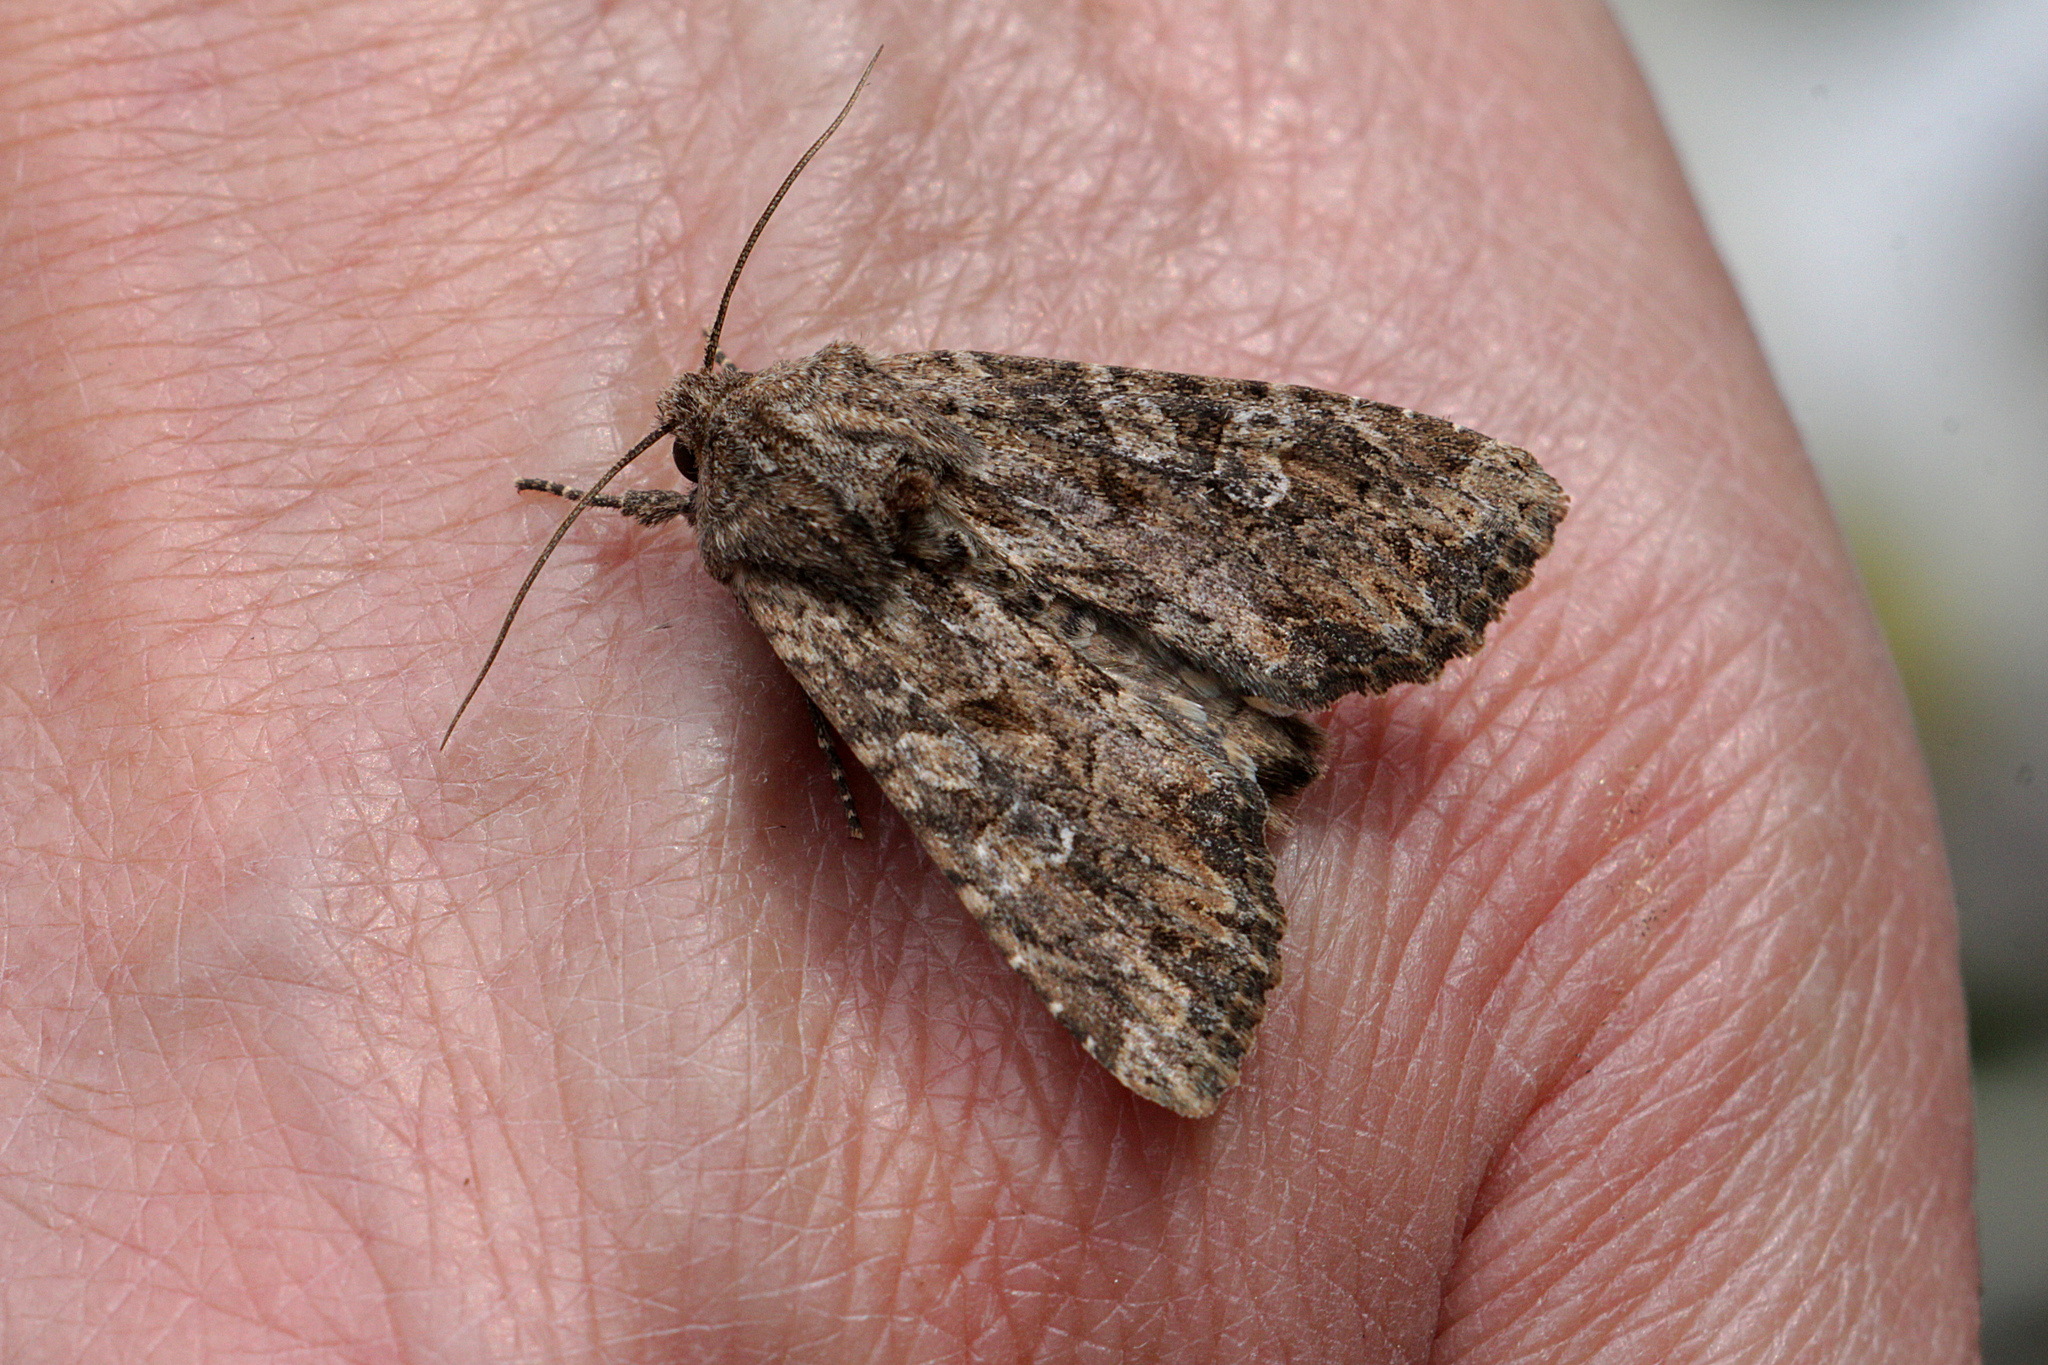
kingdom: Animalia
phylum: Arthropoda
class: Insecta
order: Lepidoptera
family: Noctuidae
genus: Apamea
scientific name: Apamea anceps
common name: Large nutmeg
